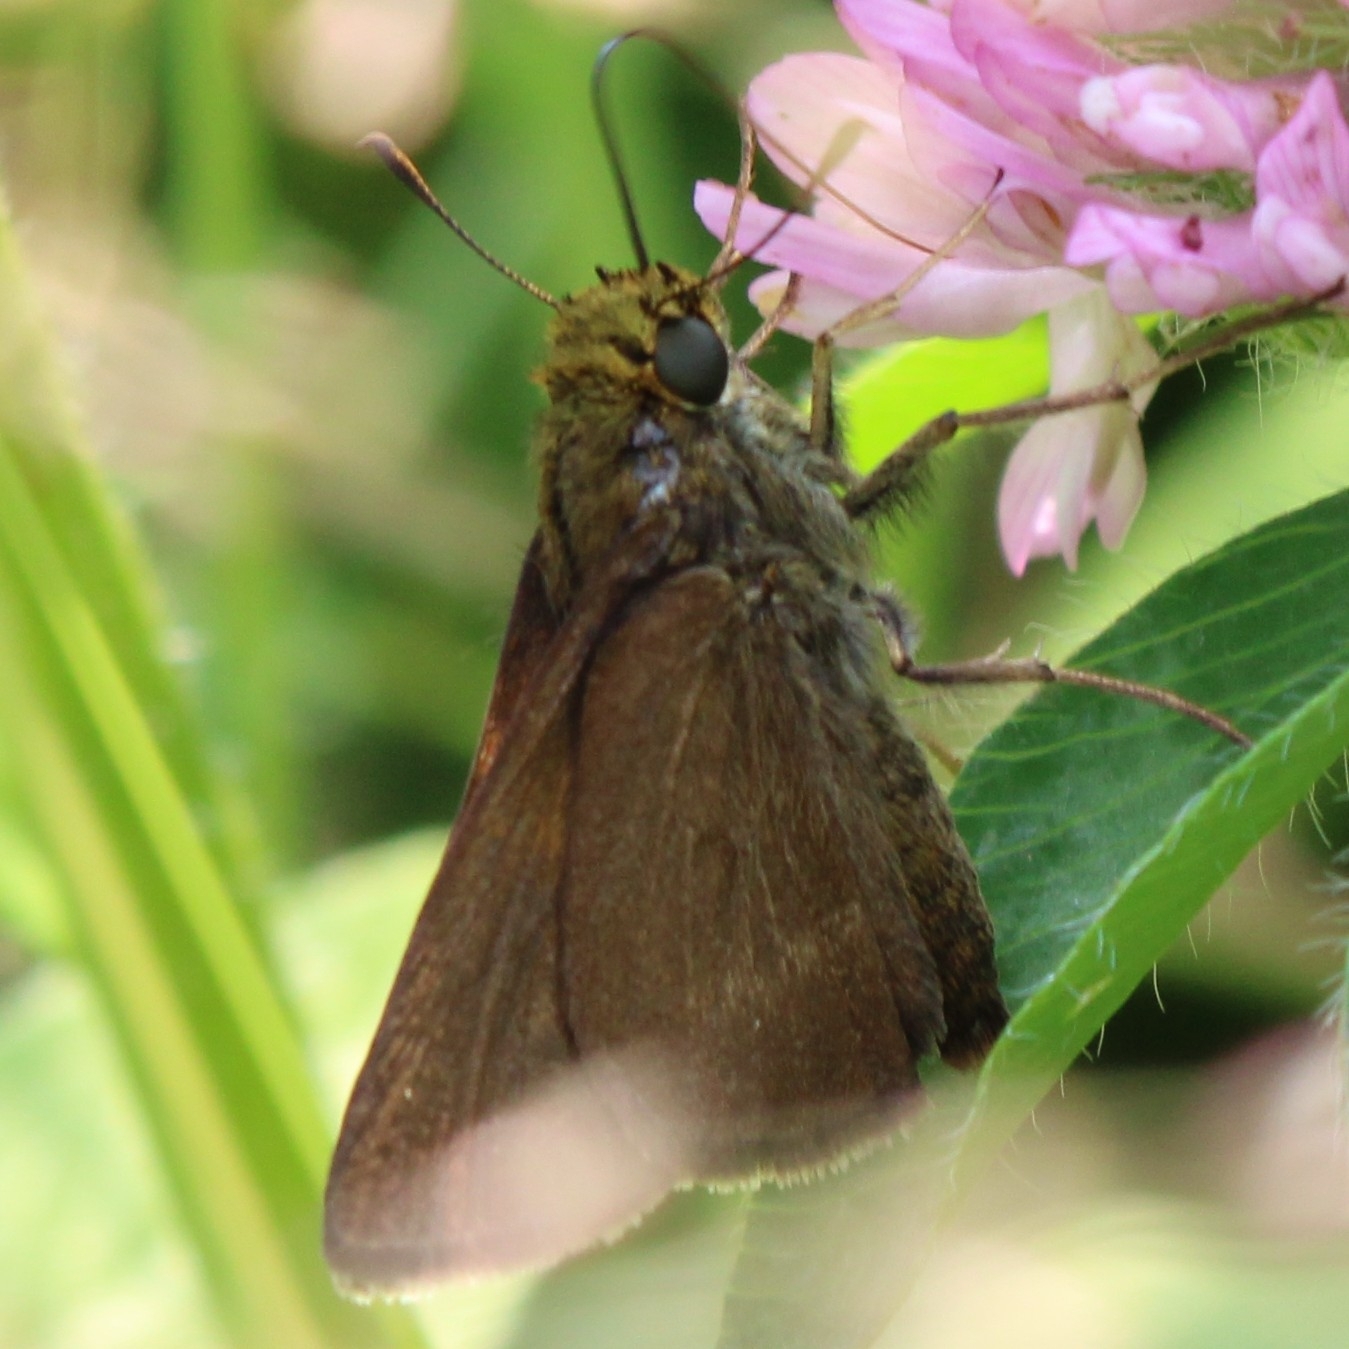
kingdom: Animalia
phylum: Arthropoda
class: Insecta
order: Lepidoptera
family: Hesperiidae
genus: Euphyes
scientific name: Euphyes vestris
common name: Dun skipper
